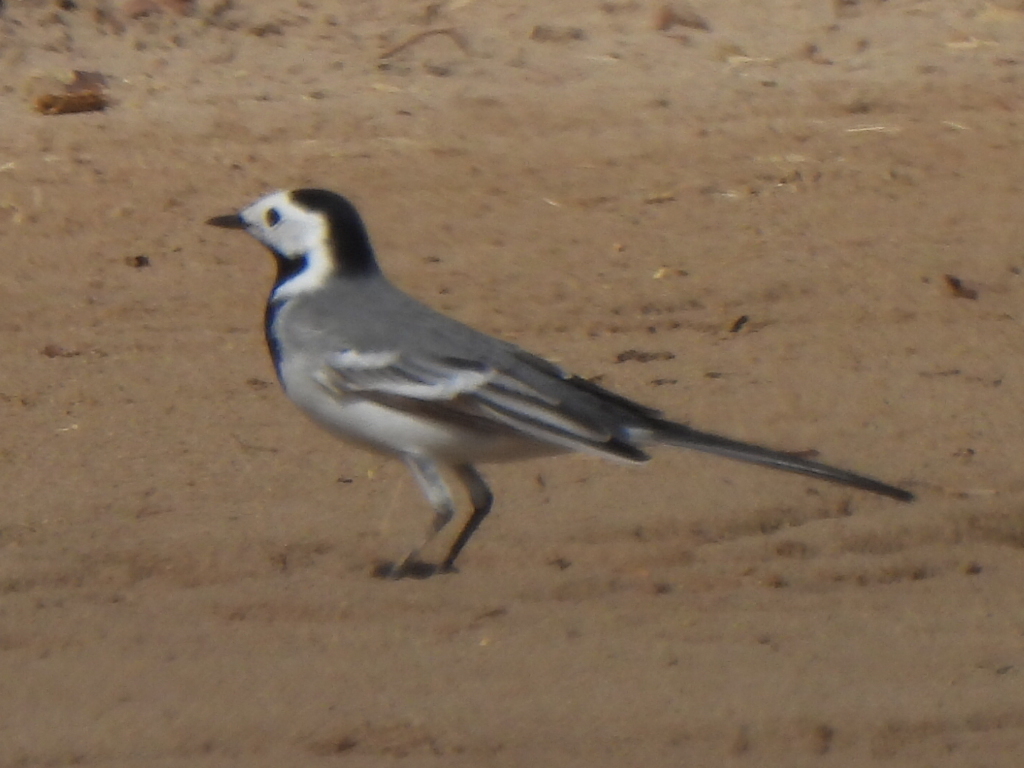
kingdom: Animalia
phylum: Chordata
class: Aves
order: Passeriformes
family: Motacillidae
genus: Motacilla
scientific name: Motacilla alba
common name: White wagtail
